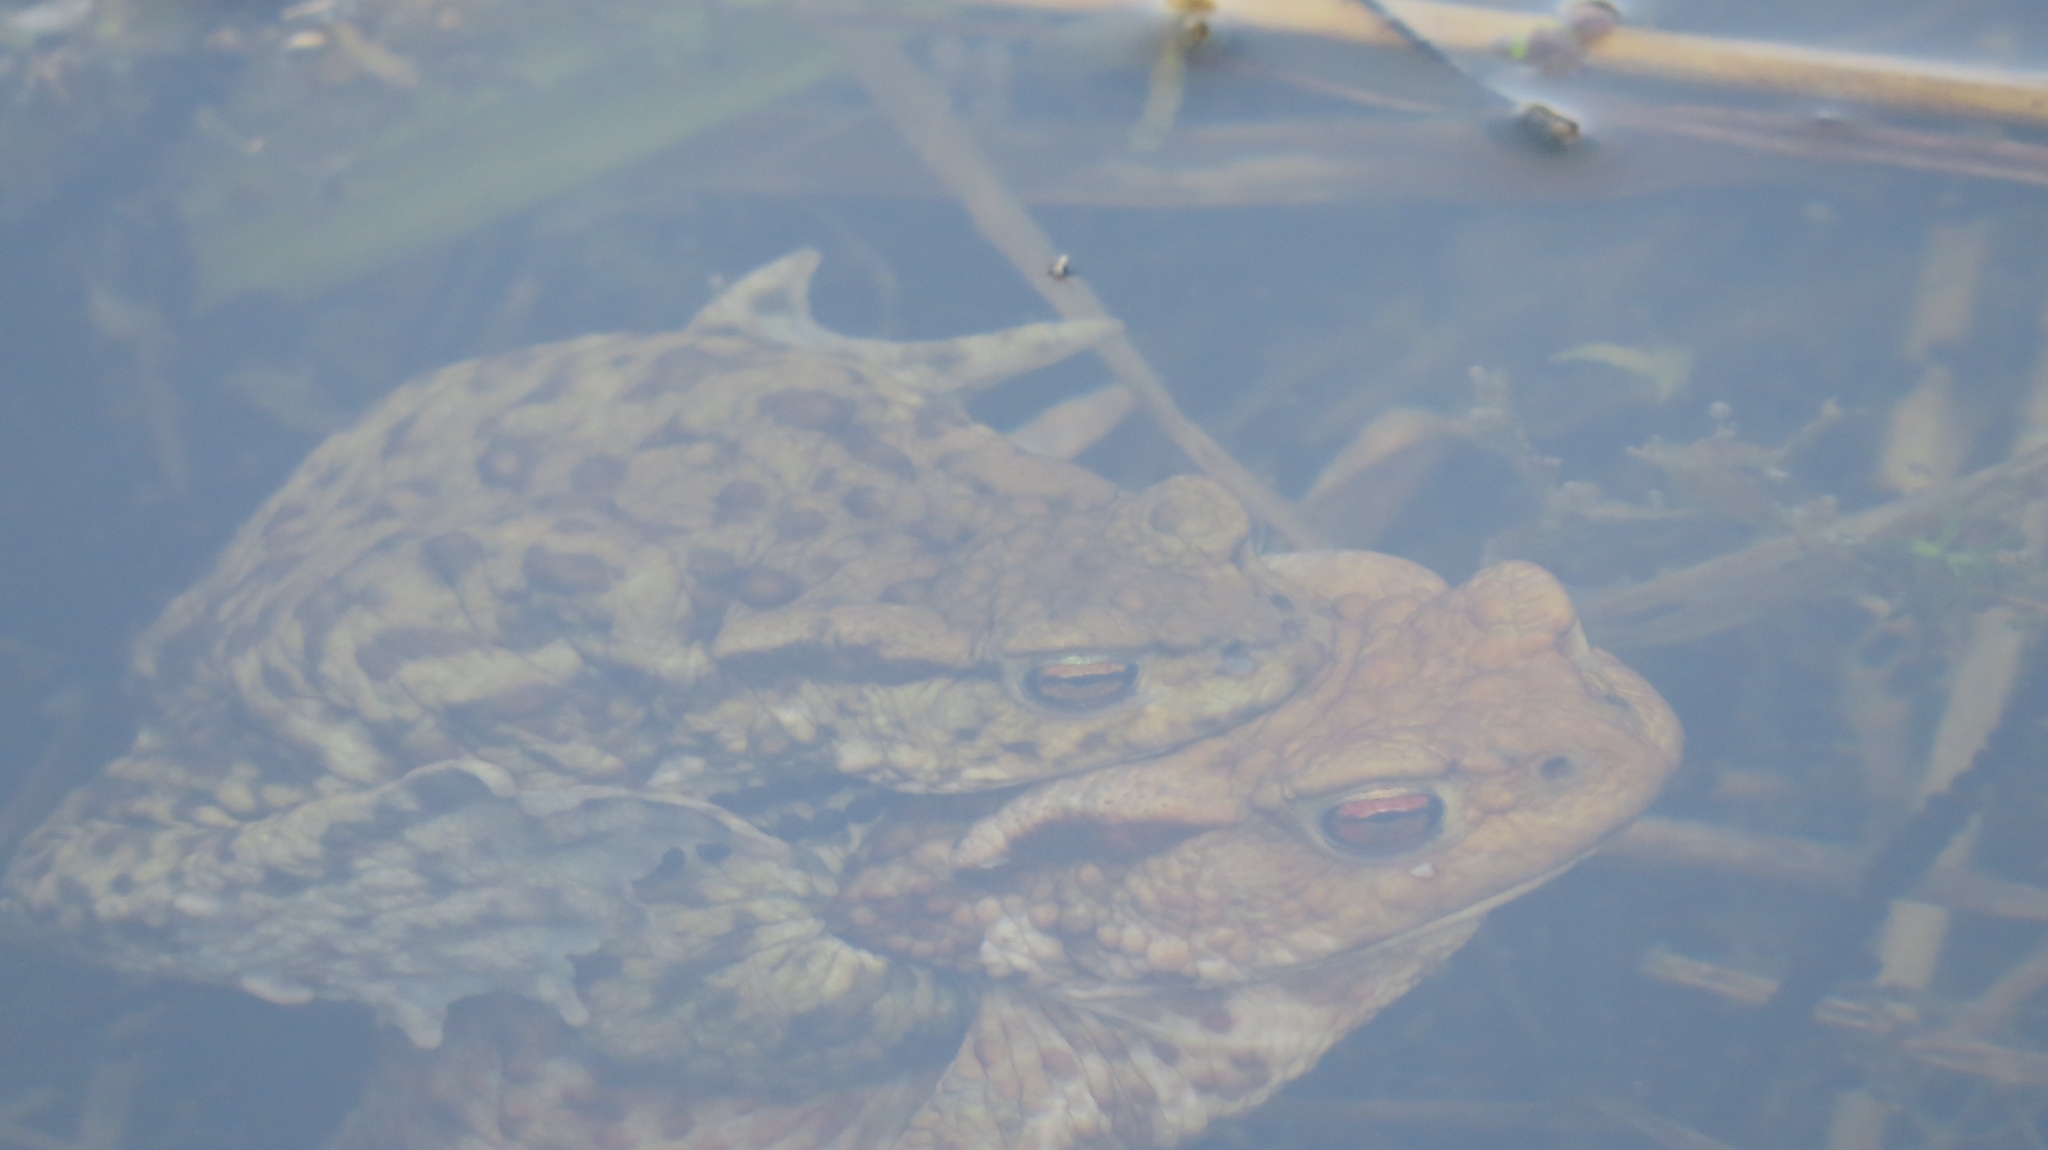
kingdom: Animalia
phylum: Chordata
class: Amphibia
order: Anura
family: Bufonidae
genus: Bufo
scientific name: Bufo bufo
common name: Common toad
